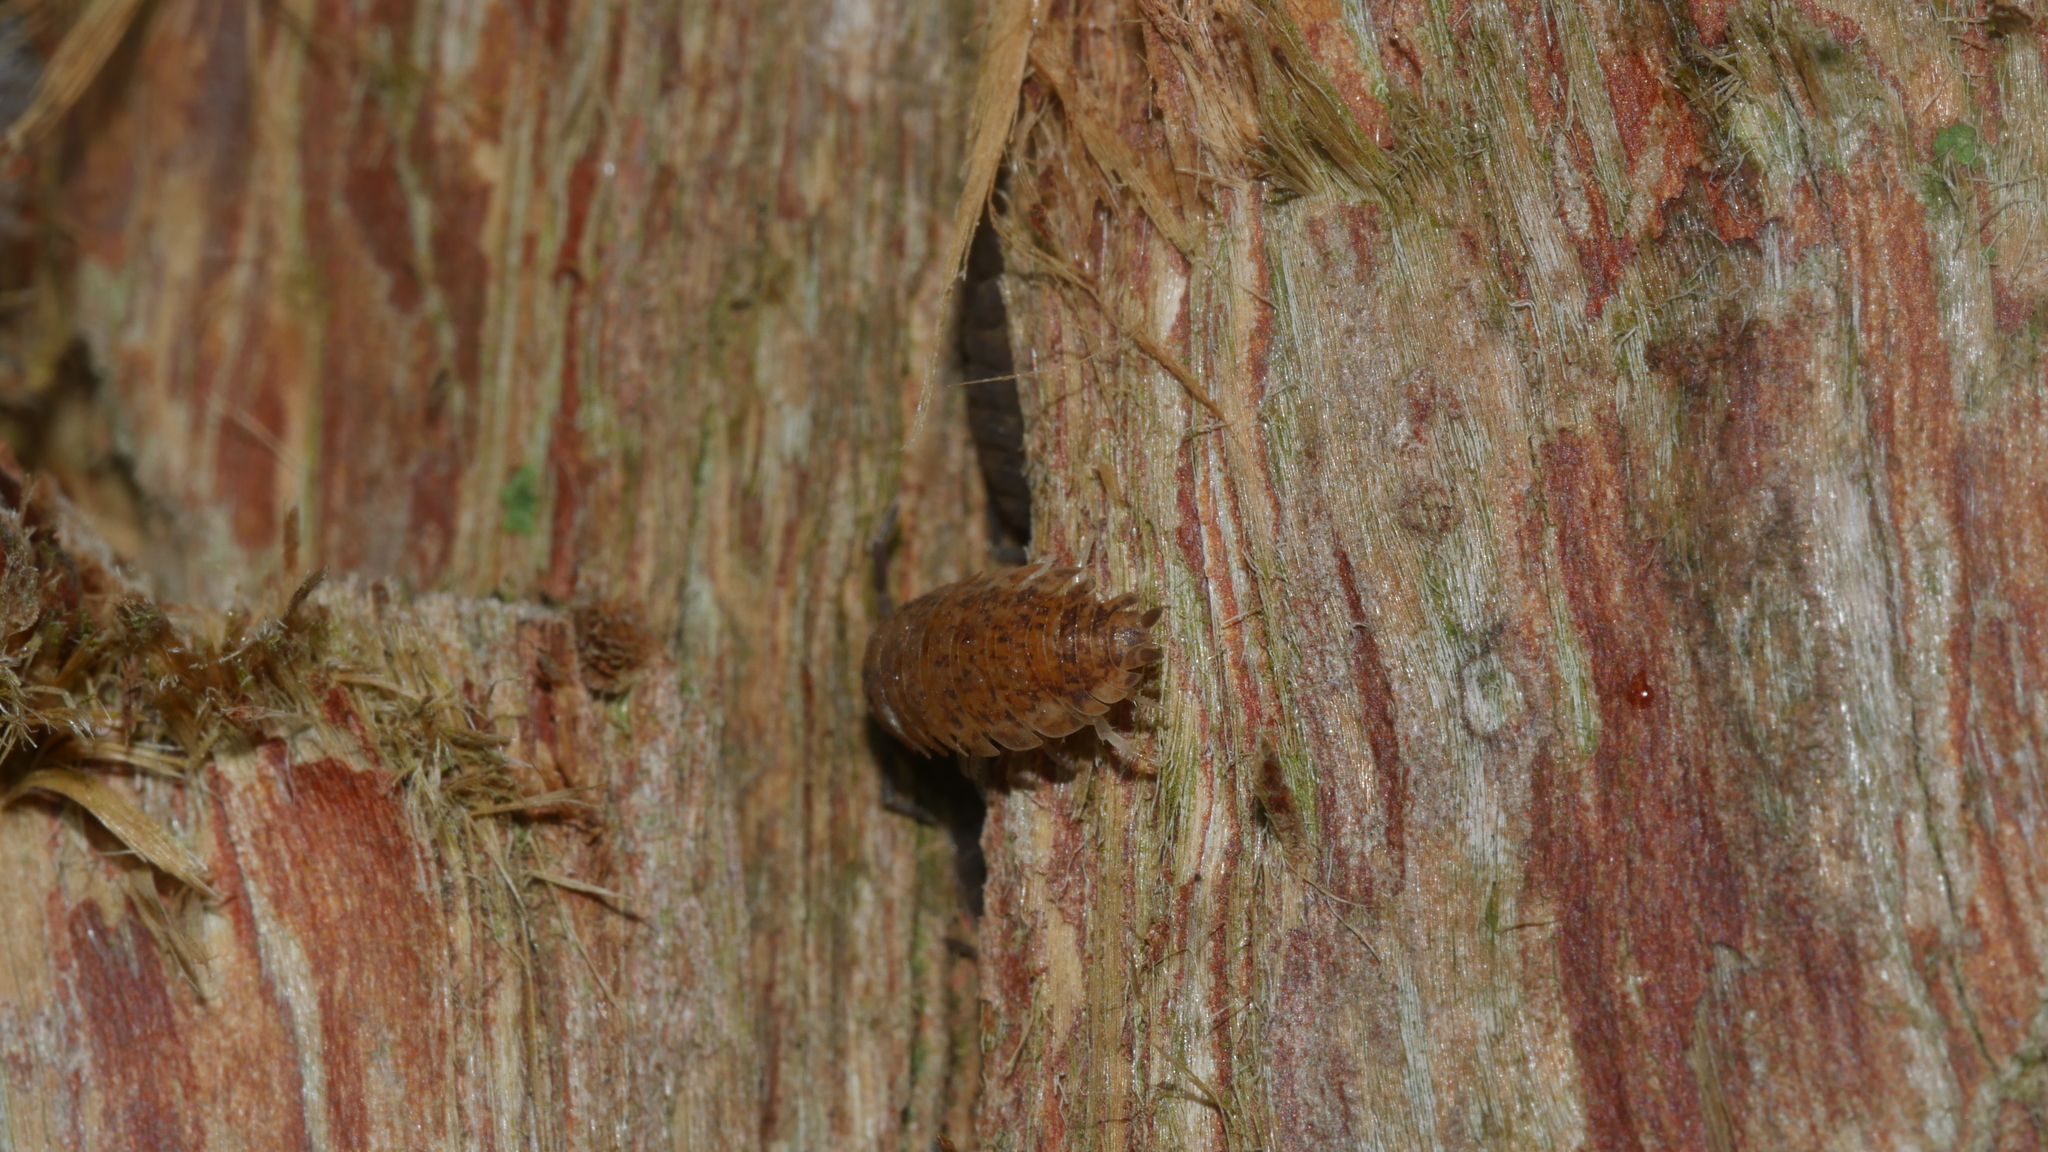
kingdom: Animalia
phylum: Arthropoda
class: Malacostraca
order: Isopoda
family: Porcellionidae
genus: Porcellio
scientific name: Porcellio scaber
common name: Common rough woodlouse
